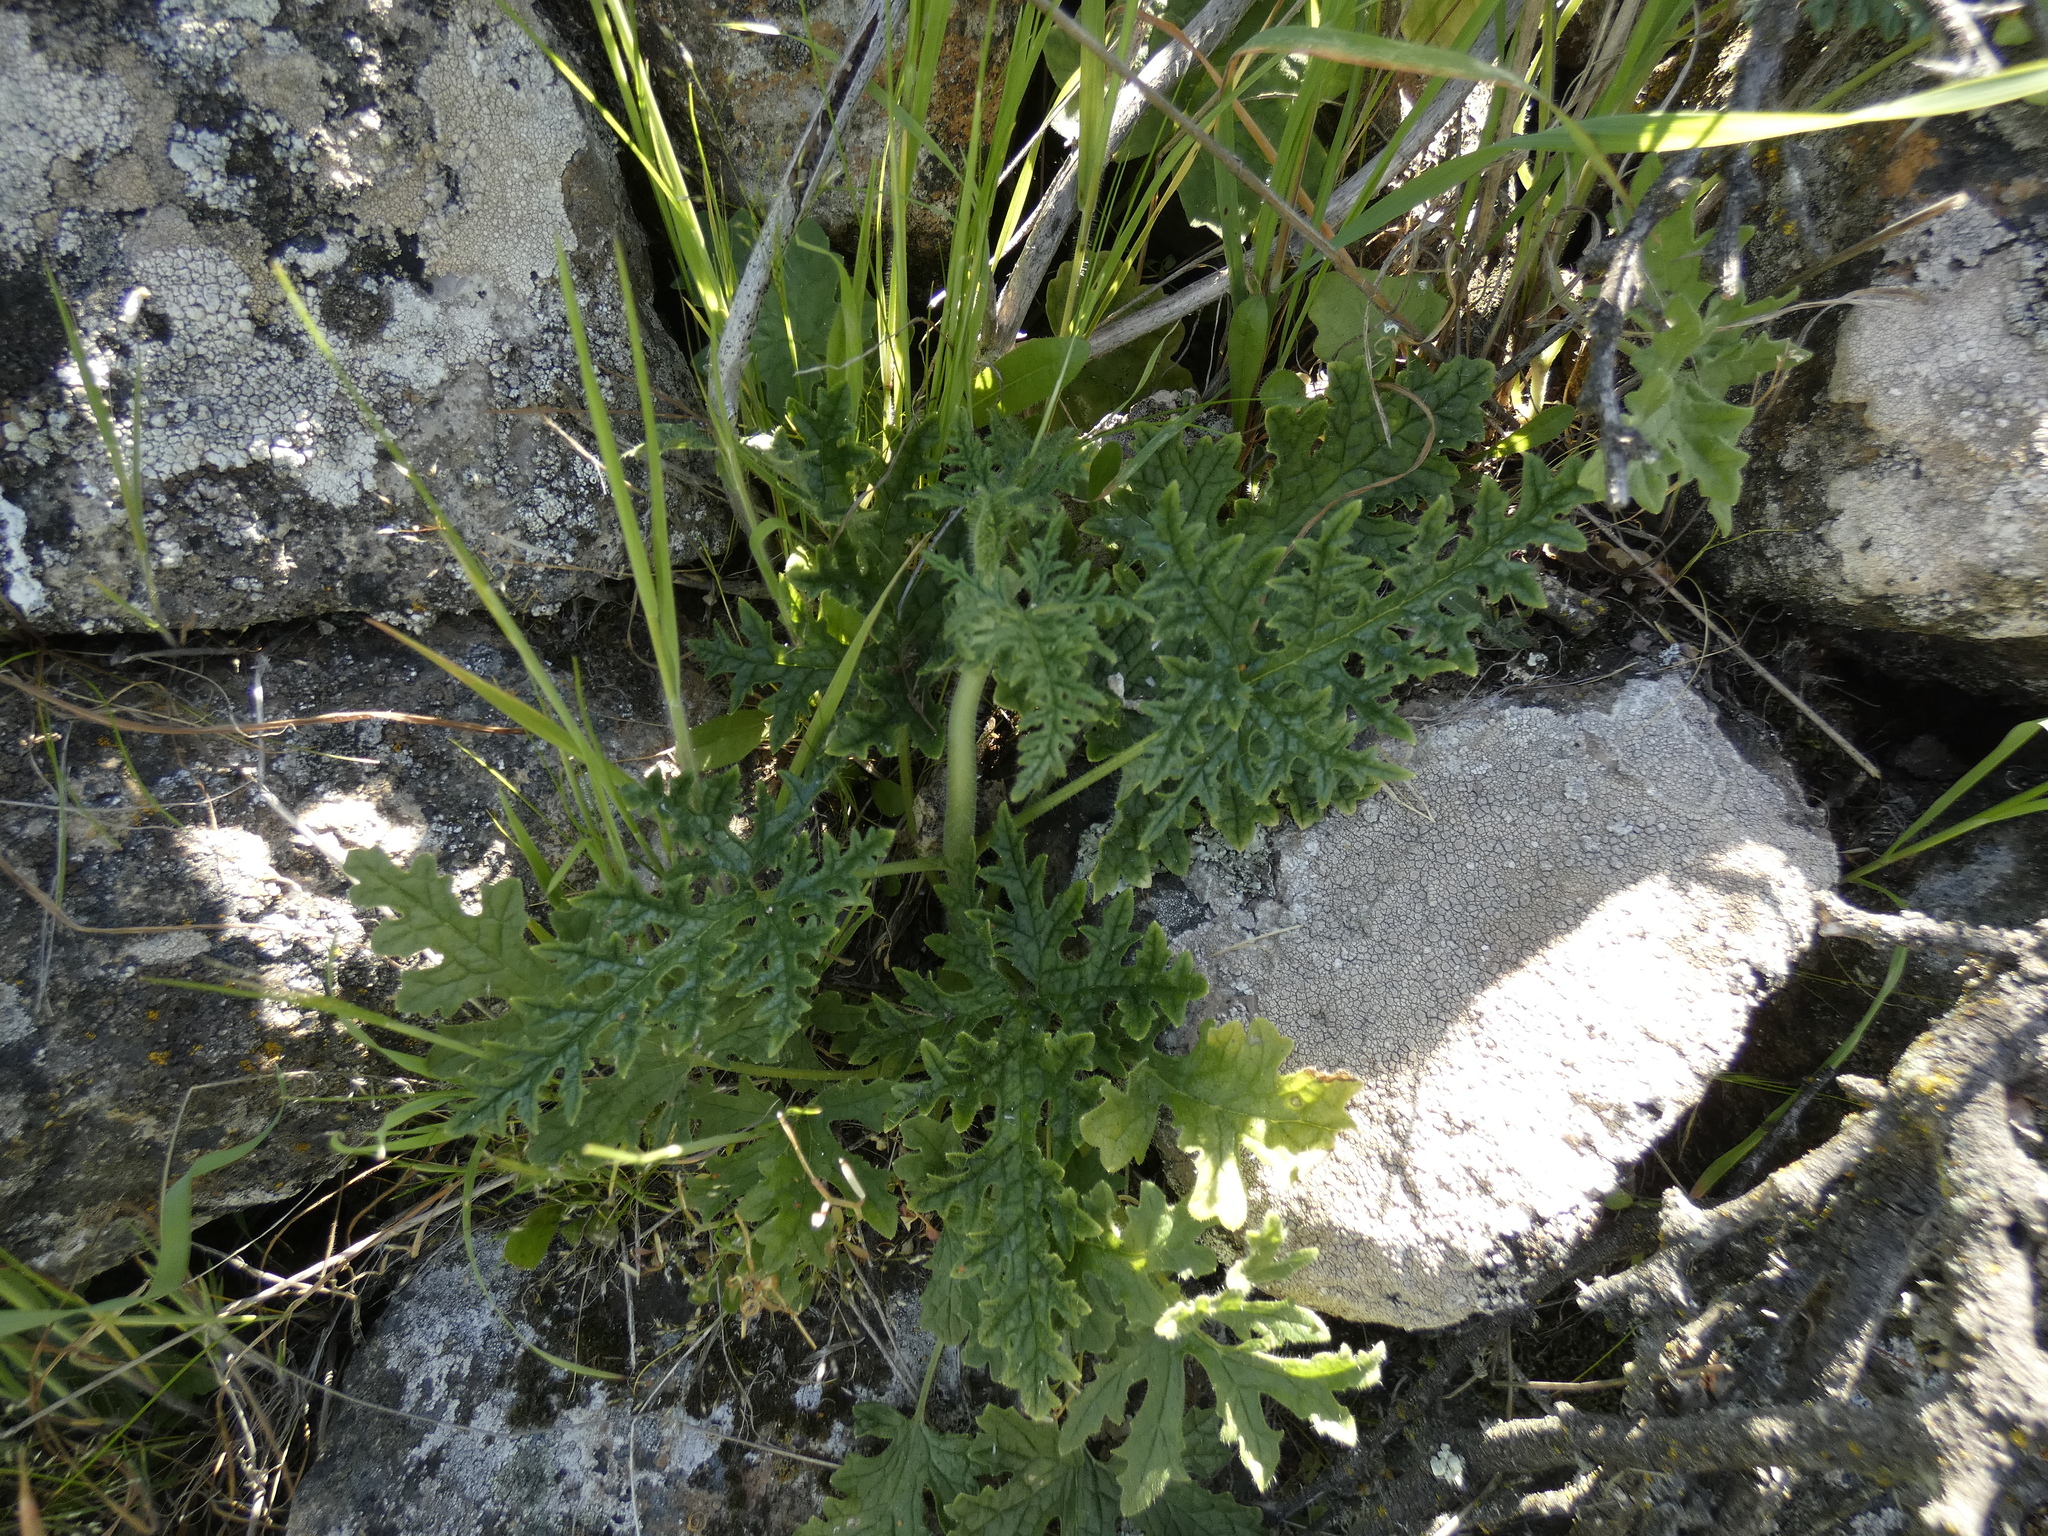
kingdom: Plantae
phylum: Tracheophyta
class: Magnoliopsida
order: Cornales
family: Loasaceae
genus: Blumenbachia
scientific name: Blumenbachia dissecta
